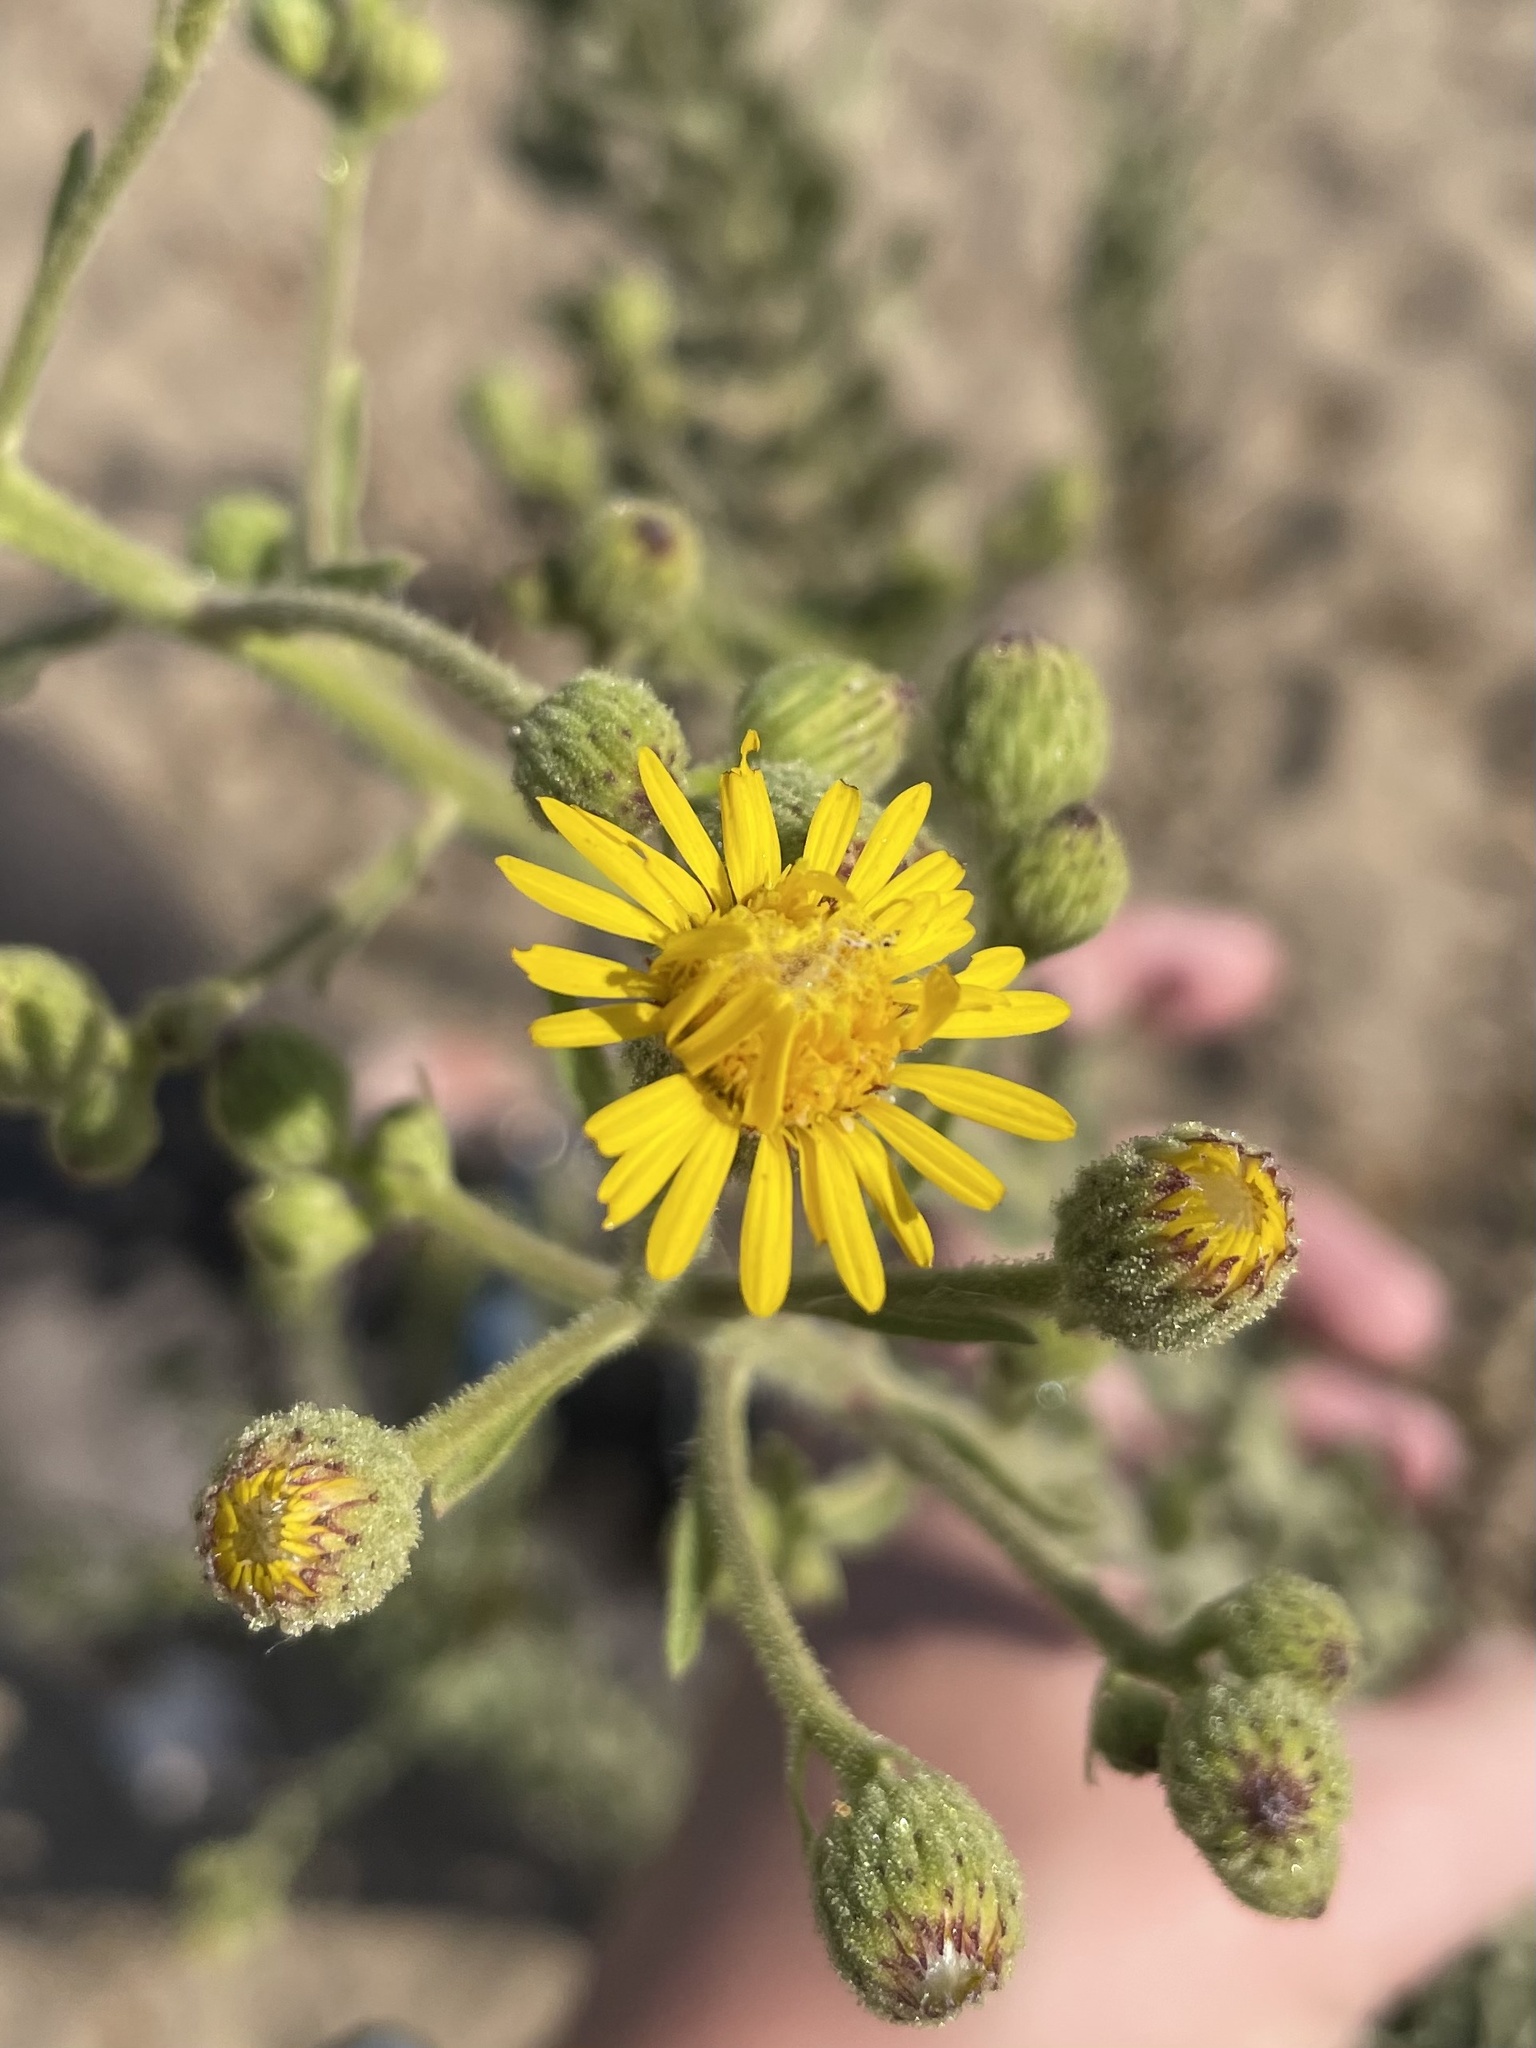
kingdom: Plantae
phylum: Tracheophyta
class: Magnoliopsida
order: Asterales
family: Asteraceae
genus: Heterotheca
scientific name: Heterotheca grandiflora
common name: Telegraphweed
